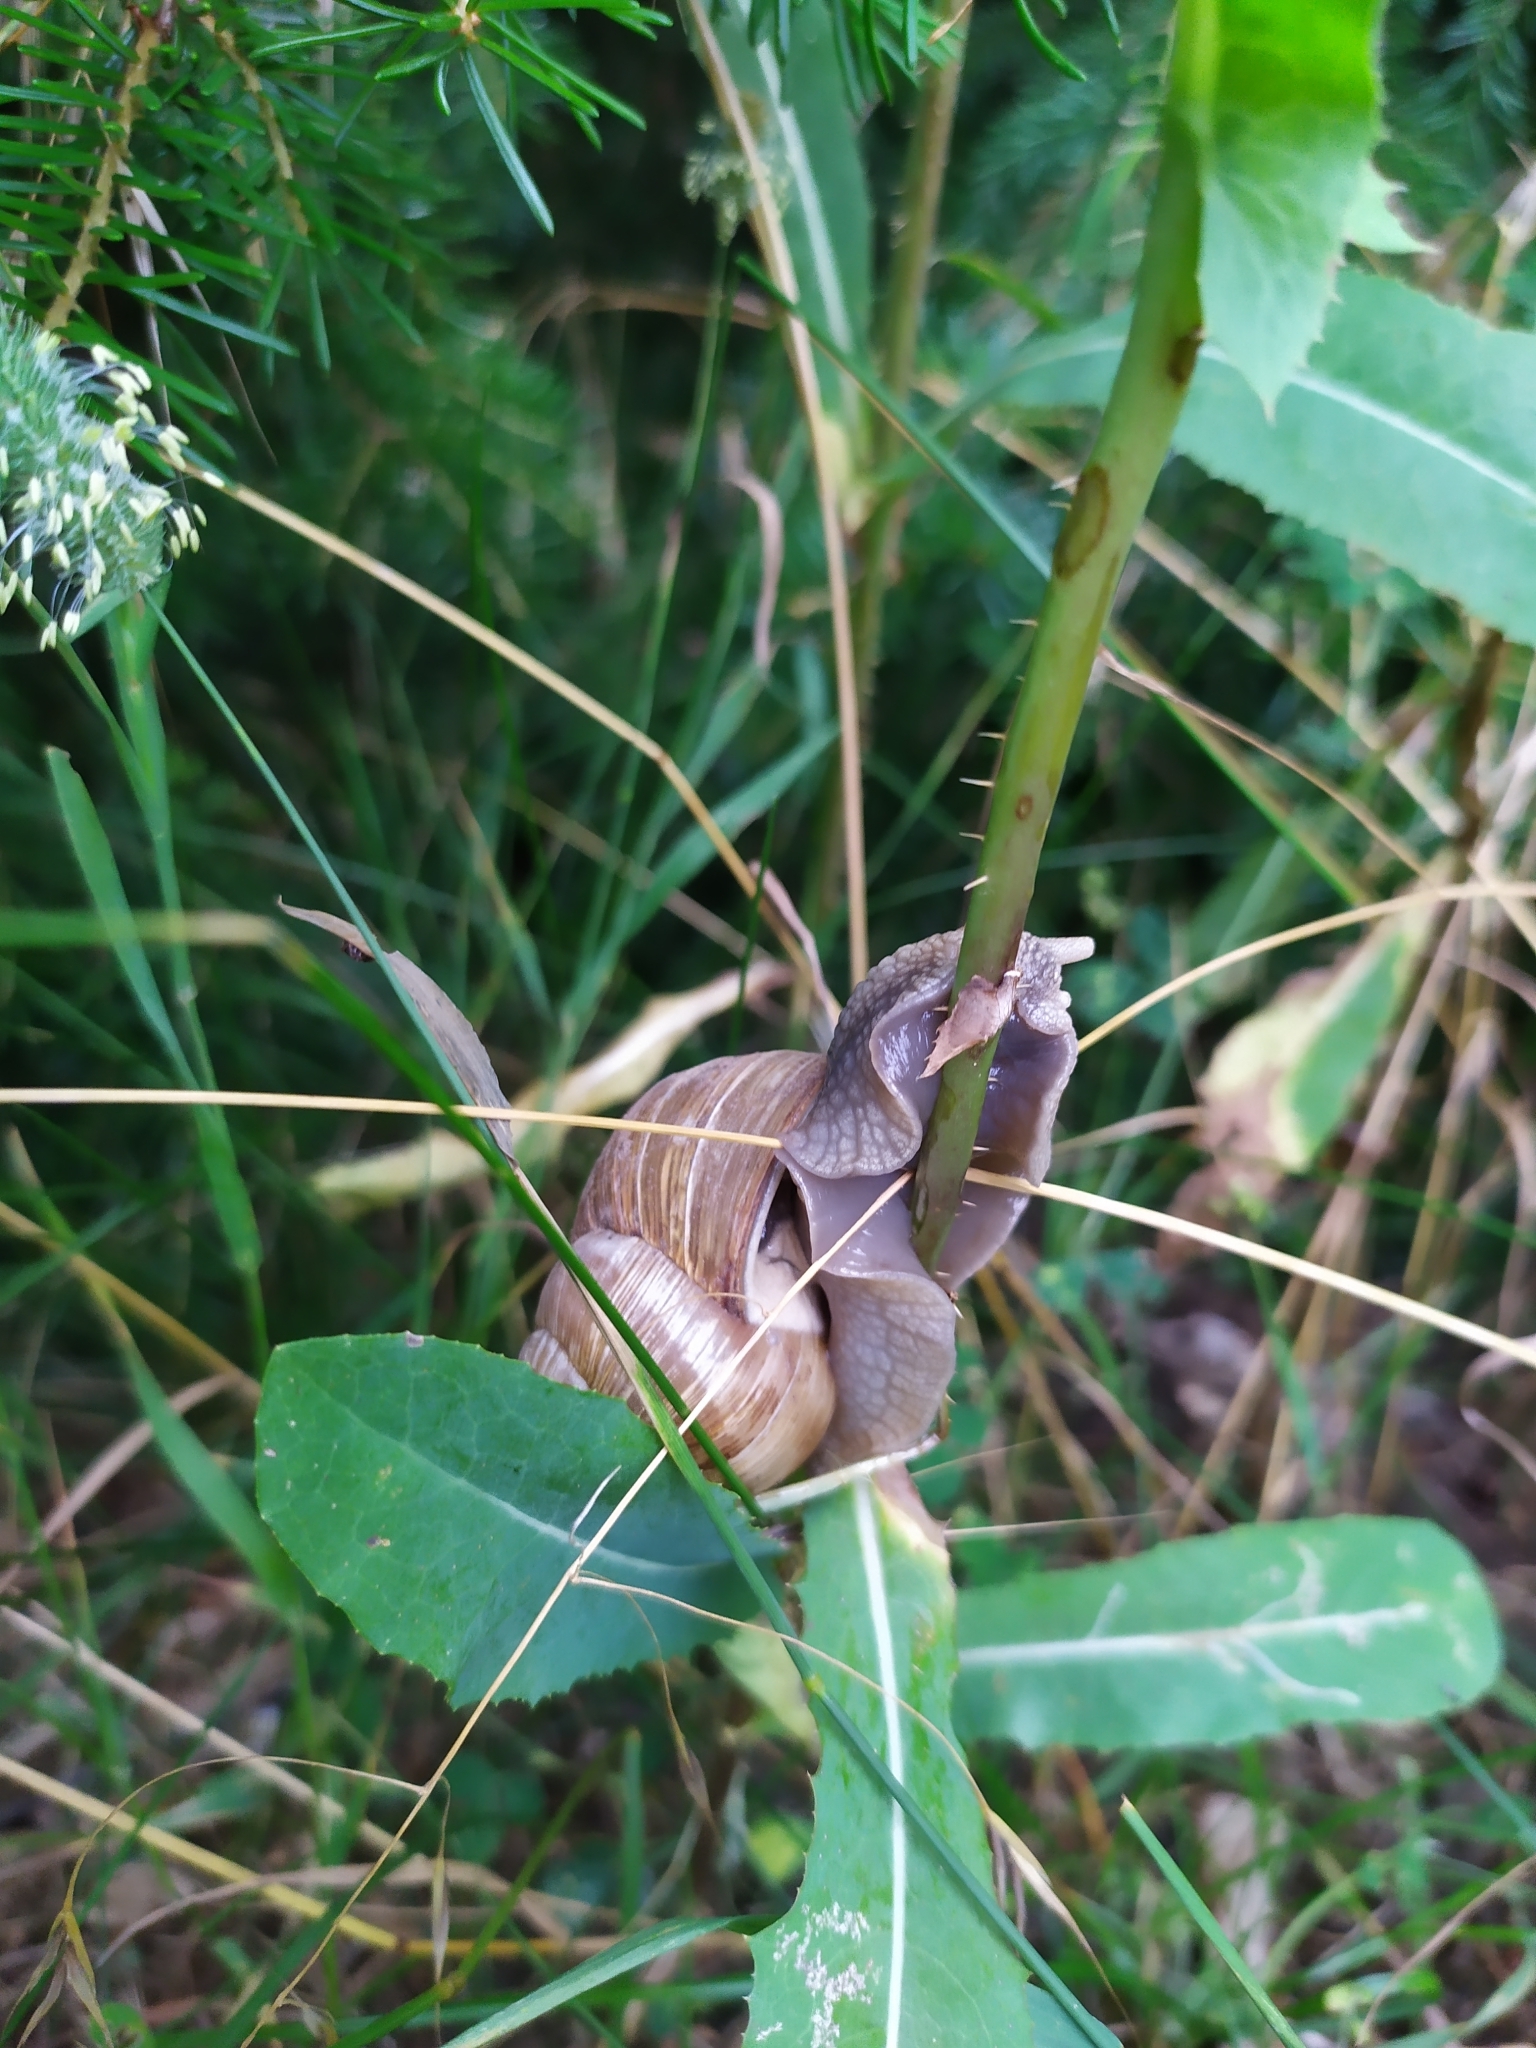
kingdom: Animalia
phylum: Mollusca
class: Gastropoda
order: Stylommatophora
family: Helicidae
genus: Helix
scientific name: Helix pomatia
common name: Roman snail
